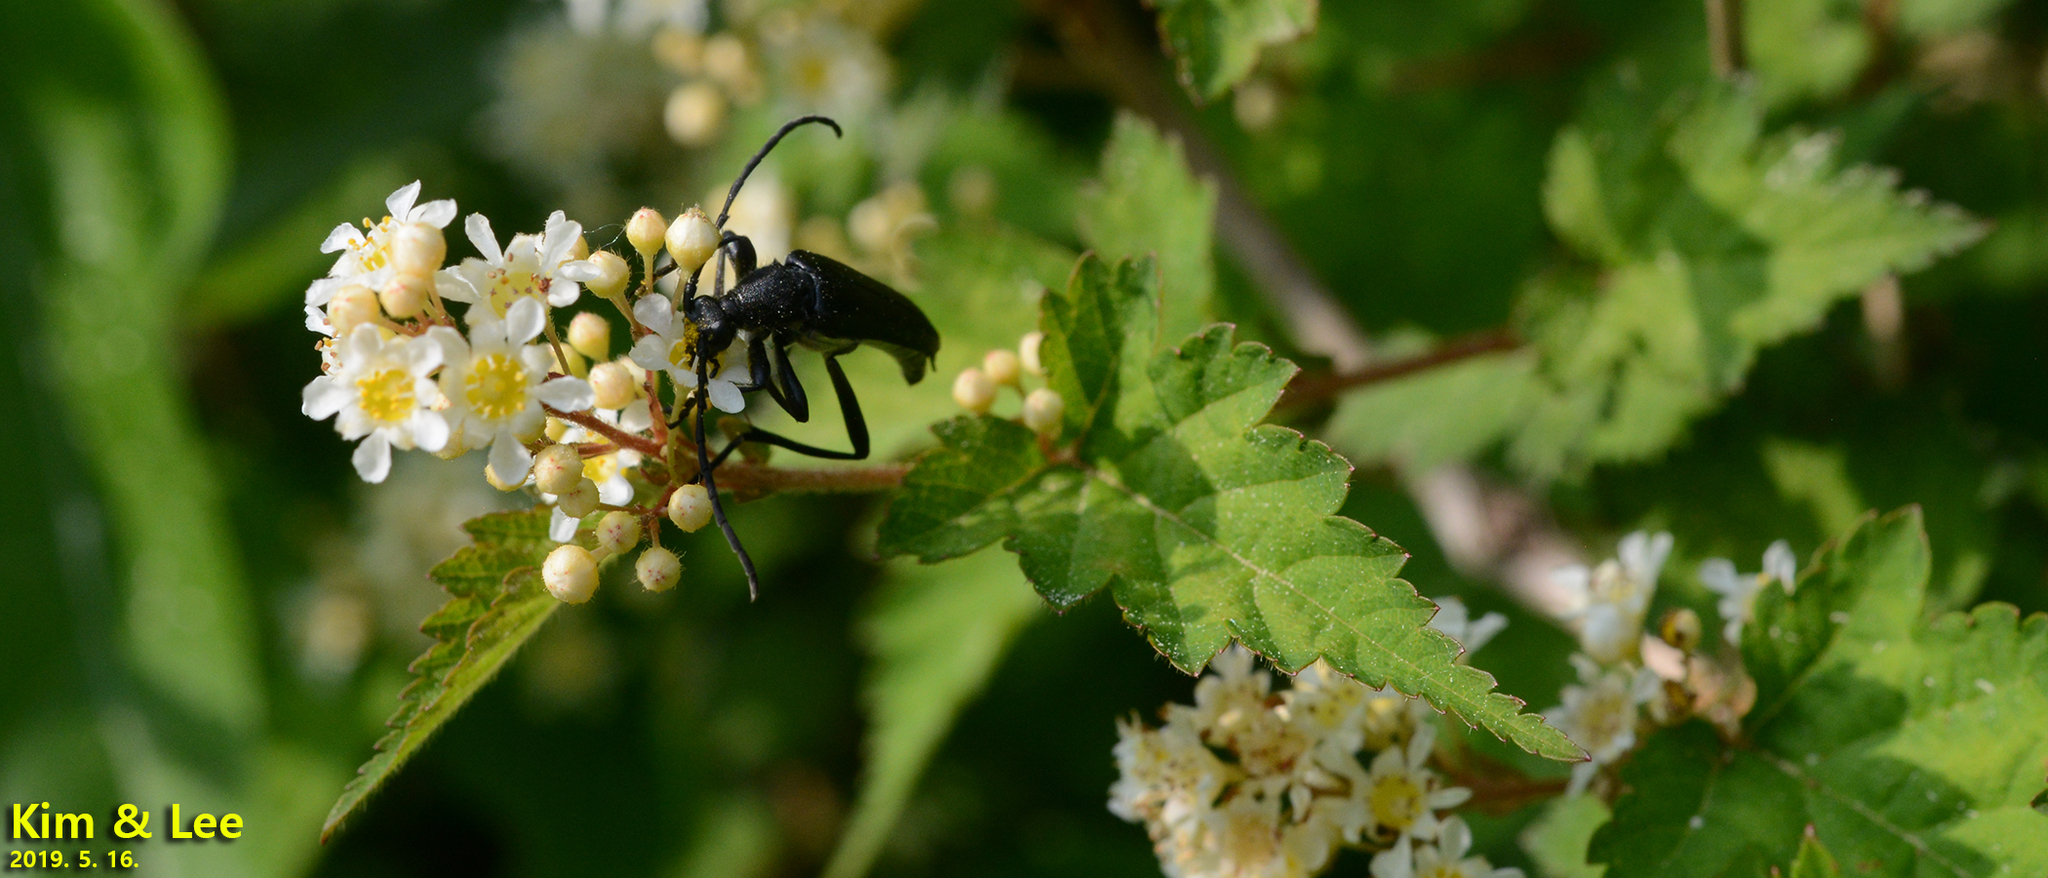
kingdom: Animalia
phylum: Arthropoda
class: Insecta
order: Coleoptera
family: Cerambycidae
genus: Leptura
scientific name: Leptura aethiops
